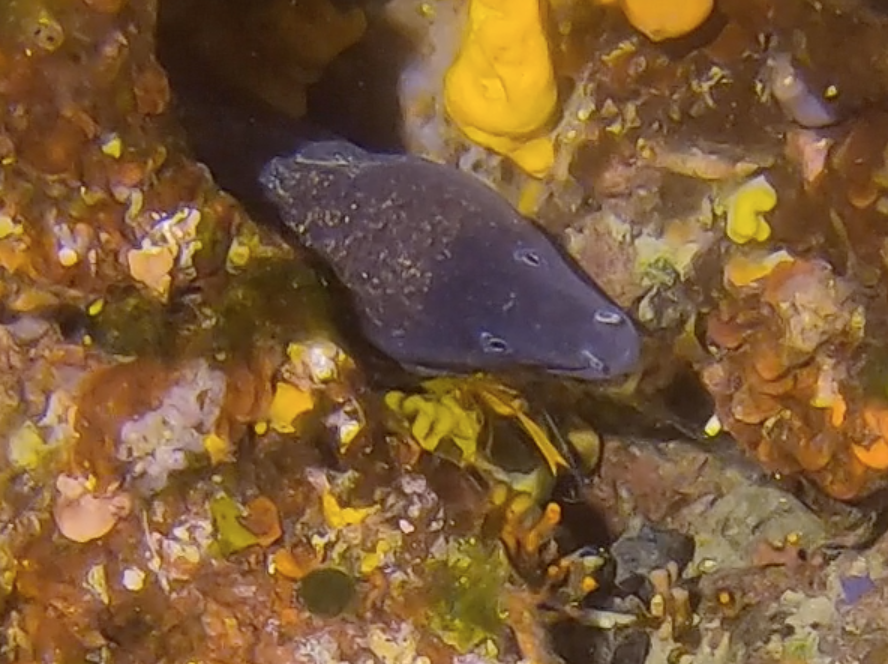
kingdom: Animalia
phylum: Chordata
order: Anguilliformes
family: Muraenidae
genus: Muraena
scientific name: Muraena helena
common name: Mediterranean moray
